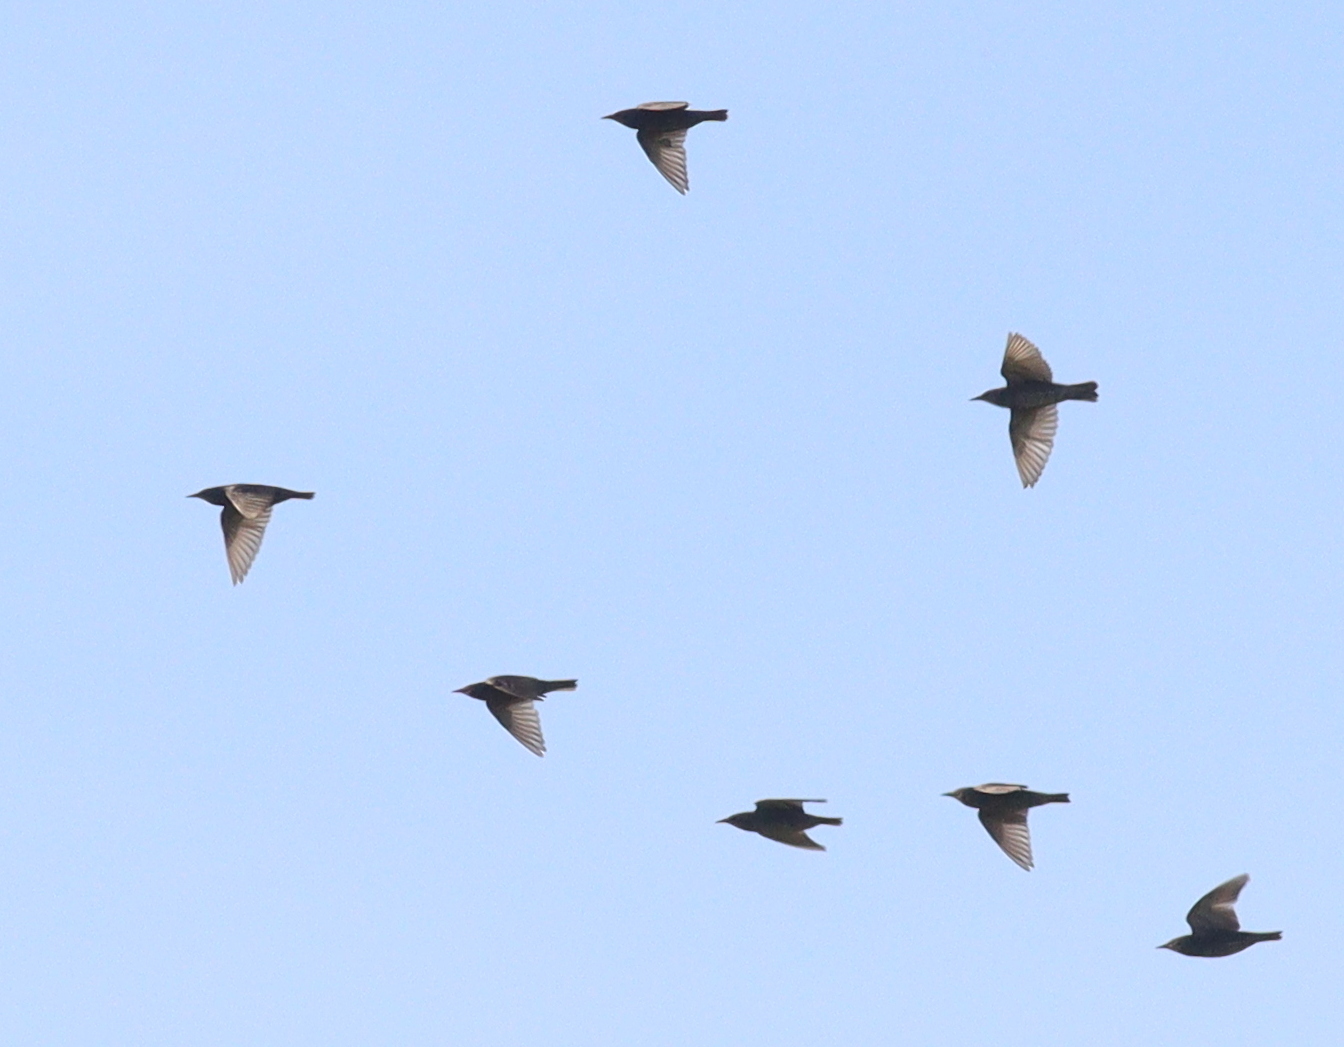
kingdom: Animalia
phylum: Chordata
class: Aves
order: Passeriformes
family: Sturnidae
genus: Sturnus
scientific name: Sturnus vulgaris
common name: Common starling
